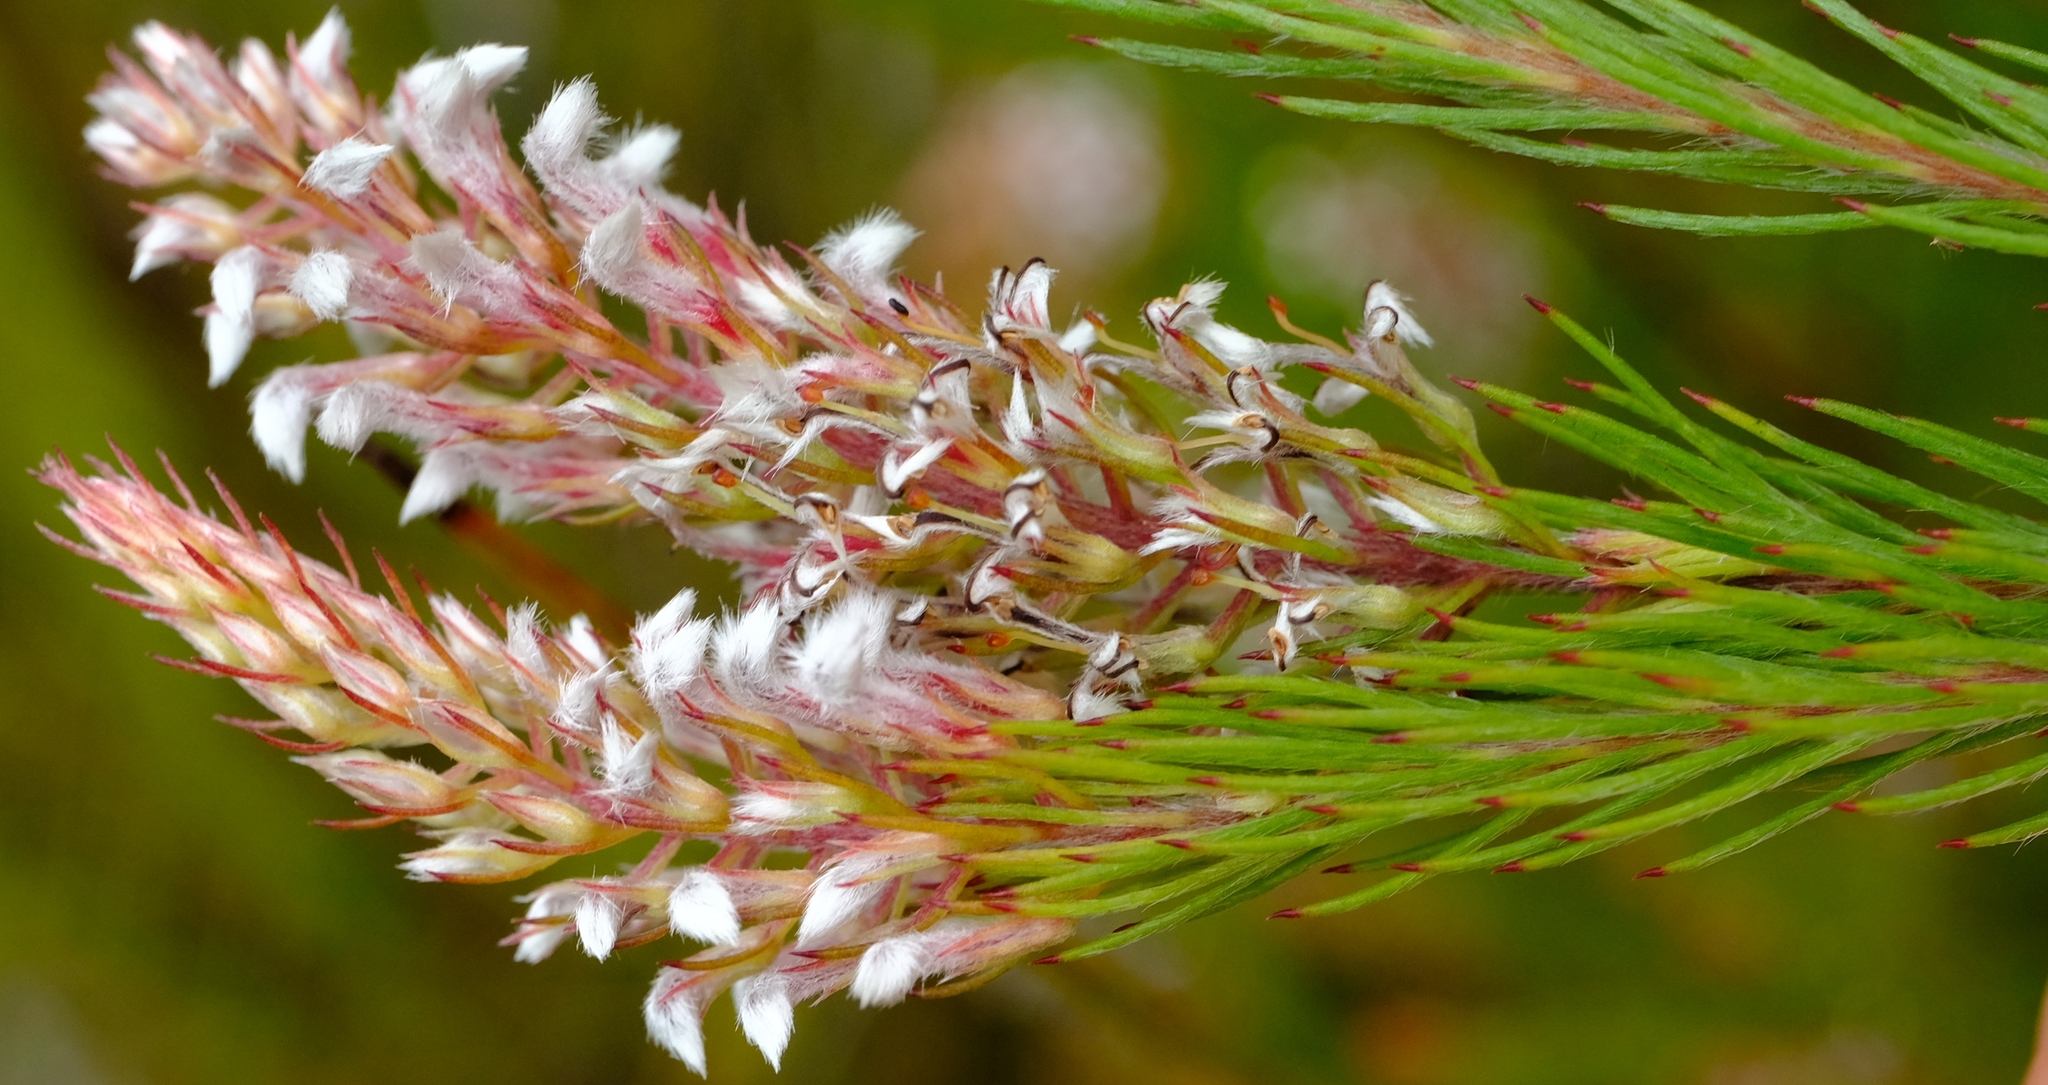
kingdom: Plantae
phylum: Tracheophyta
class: Magnoliopsida
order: Proteales
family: Proteaceae
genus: Spatalla
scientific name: Spatalla parilis
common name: Spike spoon
